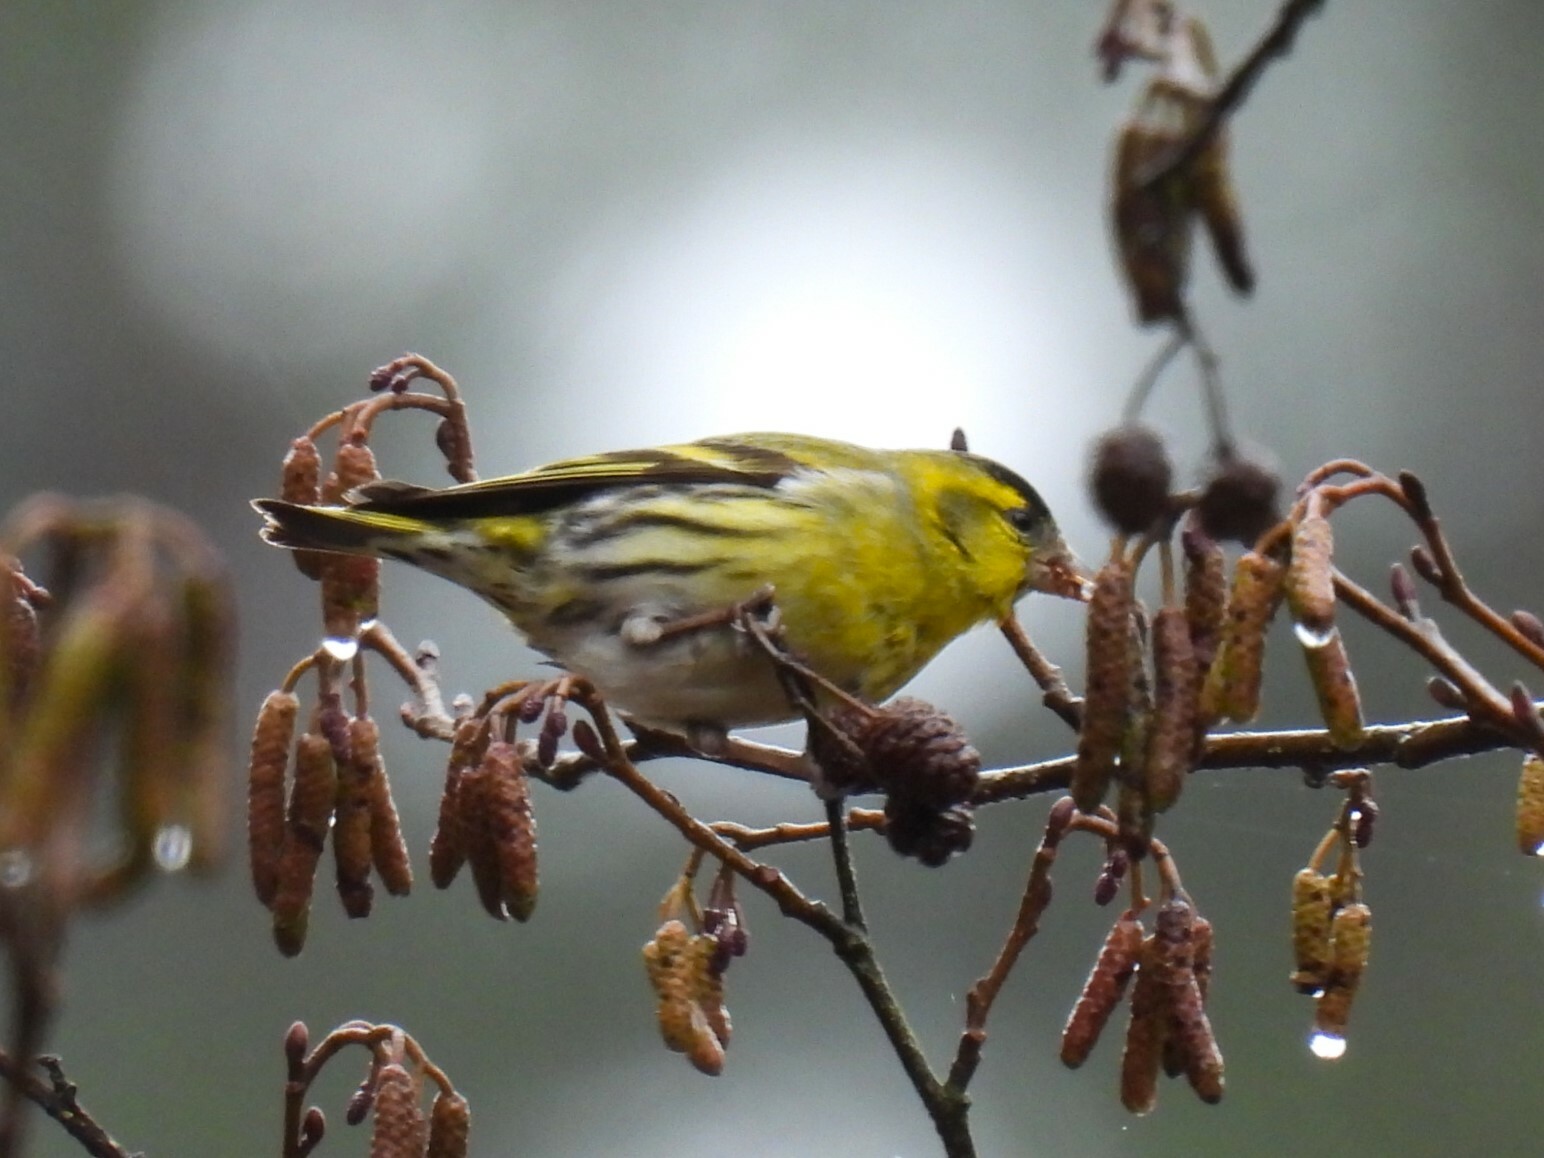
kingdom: Animalia
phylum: Chordata
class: Aves
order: Passeriformes
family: Fringillidae
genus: Spinus
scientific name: Spinus spinus
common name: Eurasian siskin
